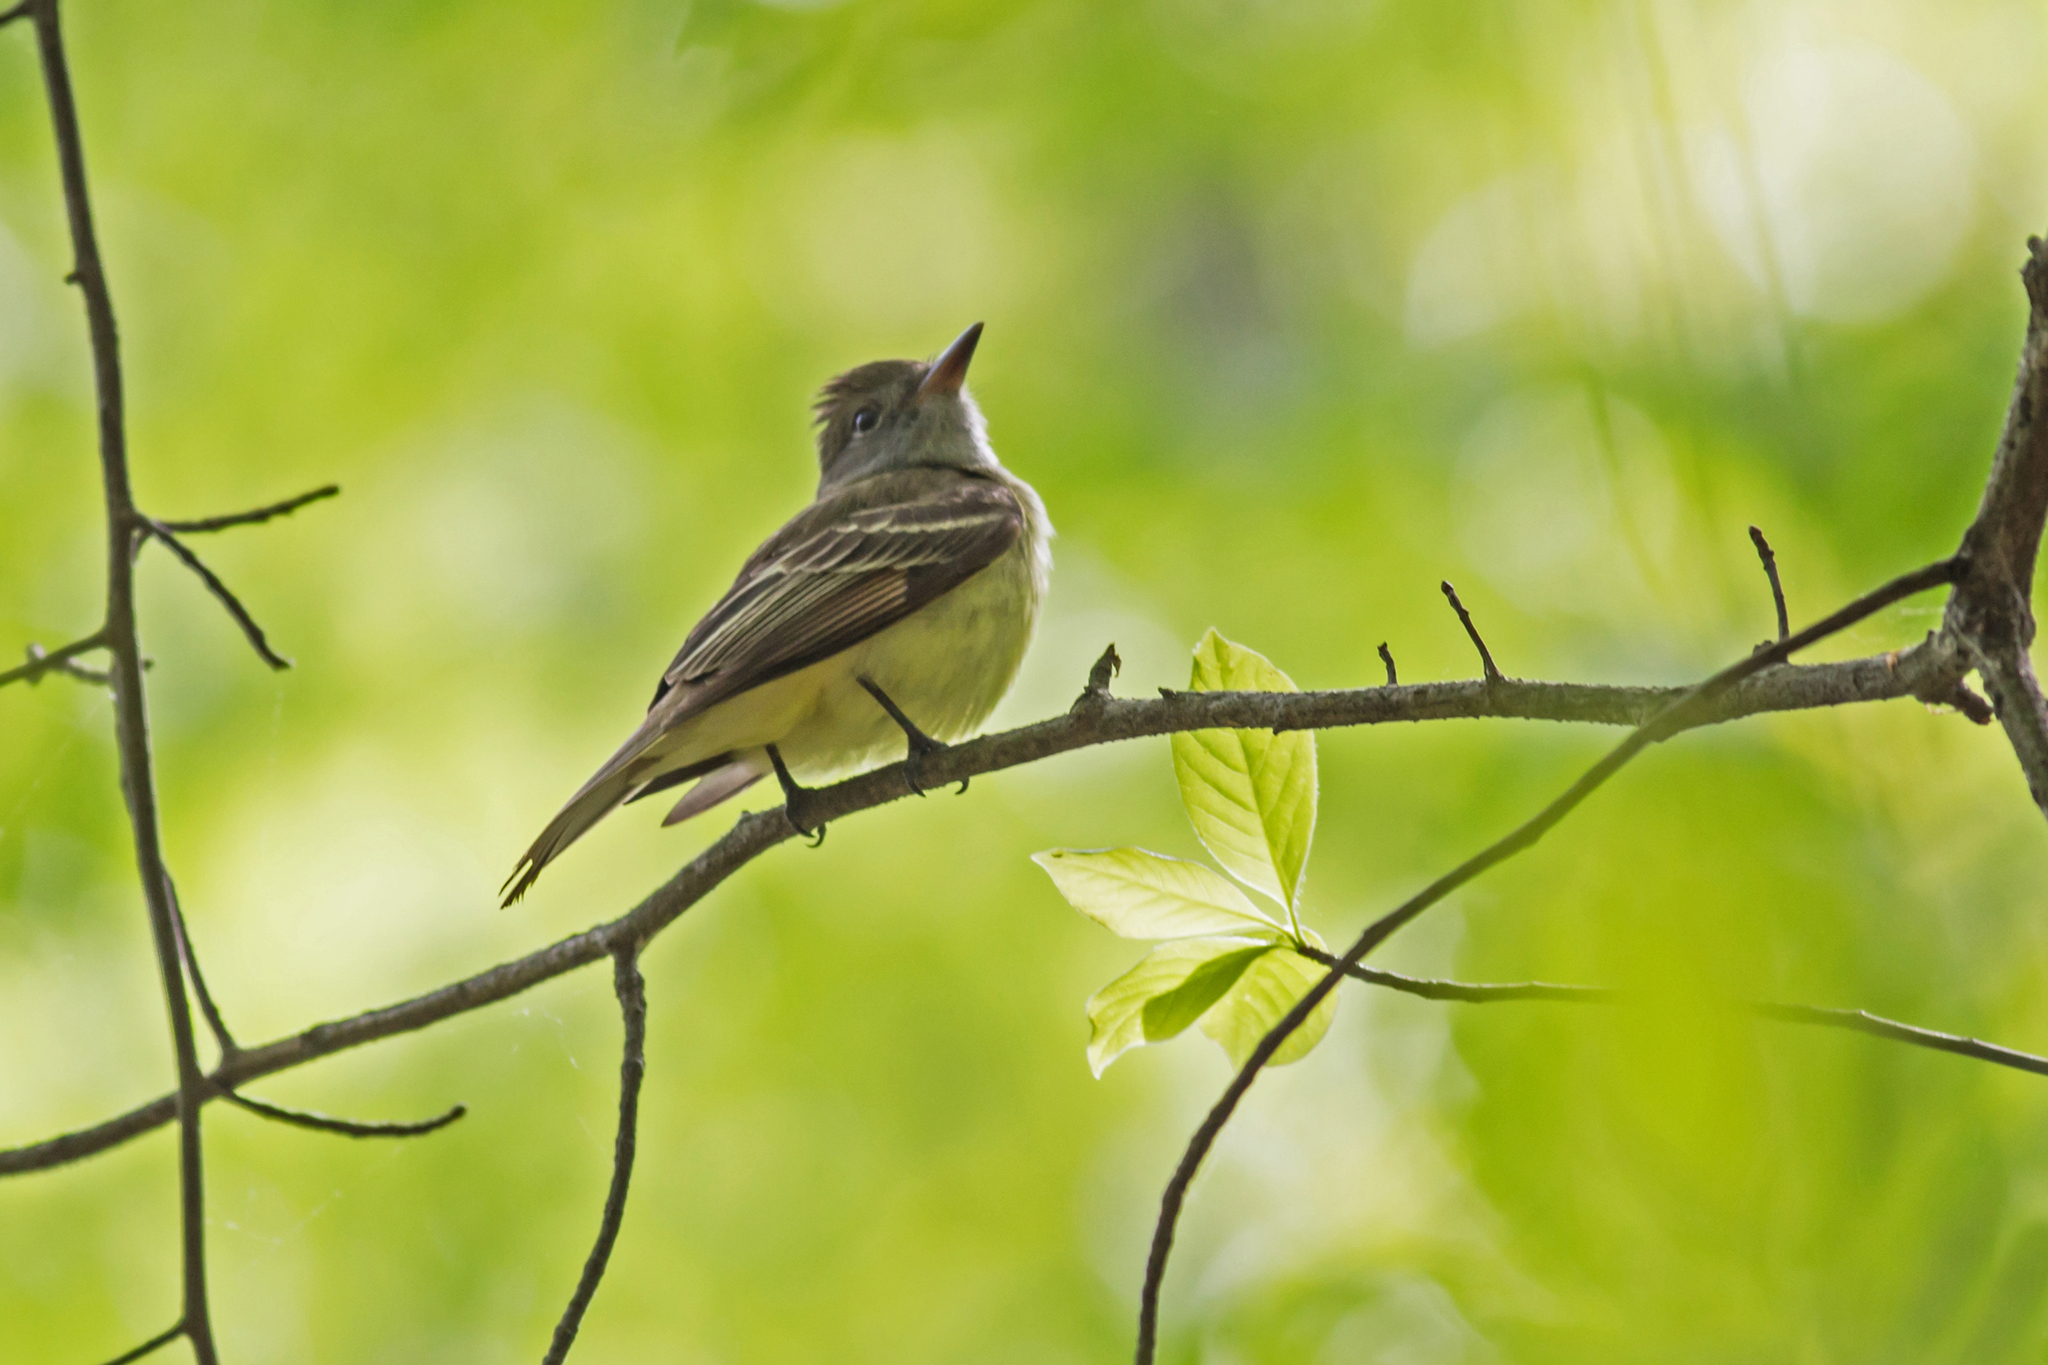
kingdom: Animalia
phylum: Chordata
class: Aves
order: Passeriformes
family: Tyrannidae
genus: Myiarchus
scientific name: Myiarchus crinitus
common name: Great crested flycatcher
